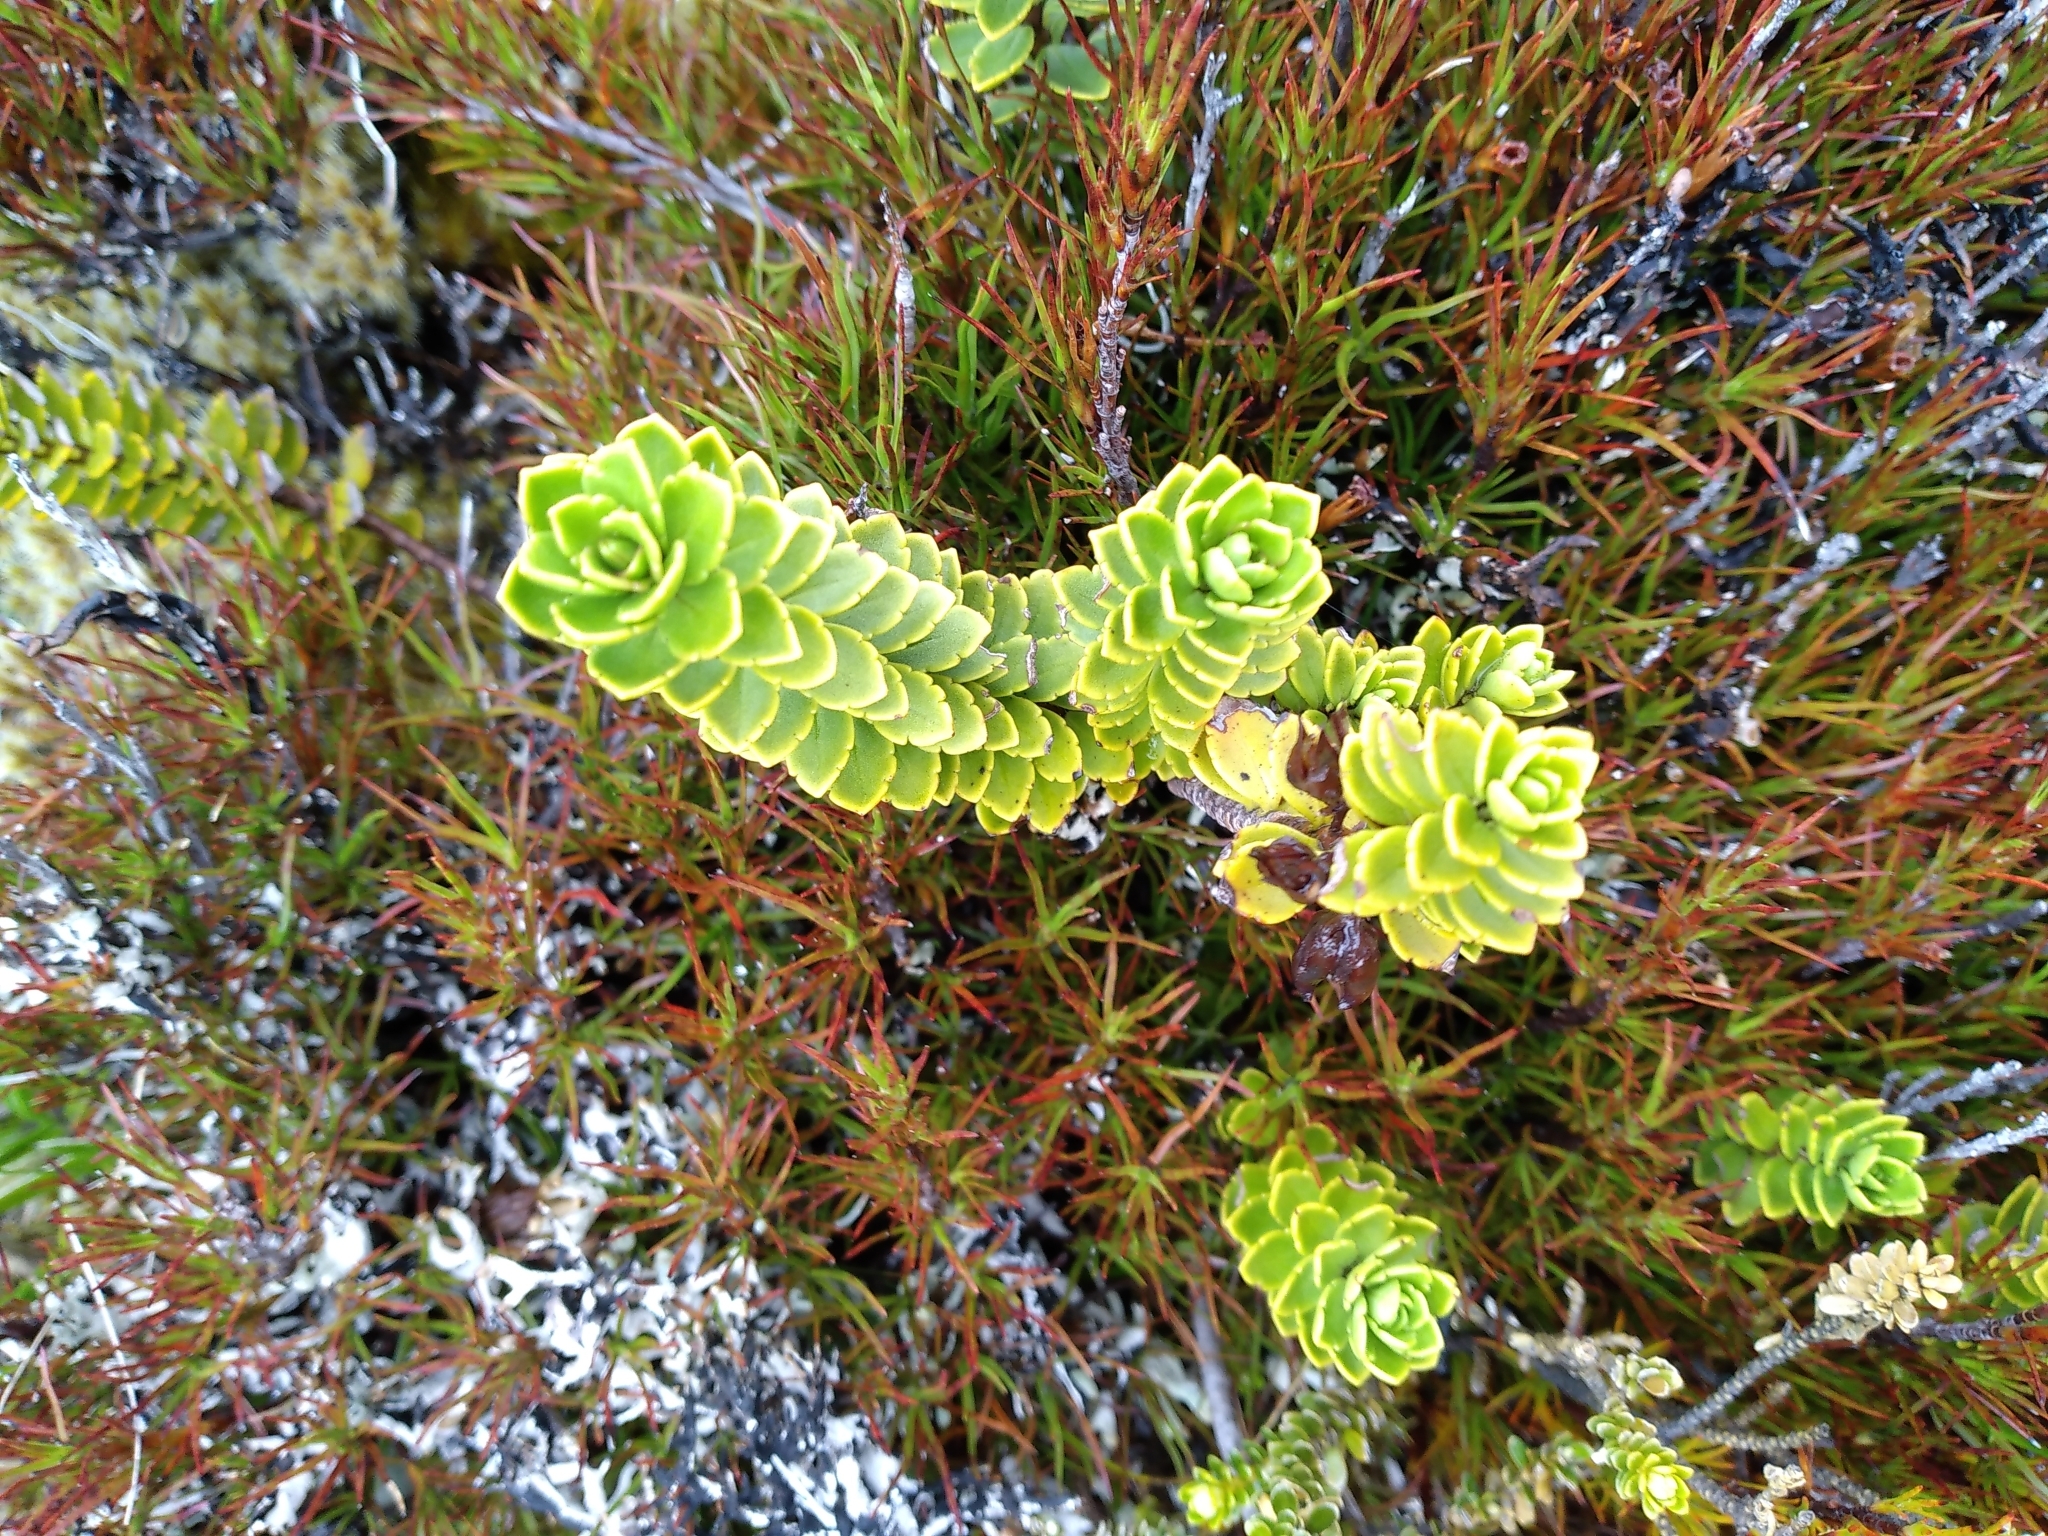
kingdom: Plantae
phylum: Tracheophyta
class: Magnoliopsida
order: Lamiales
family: Plantaginaceae
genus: Veronica
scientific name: Veronica macrantha
